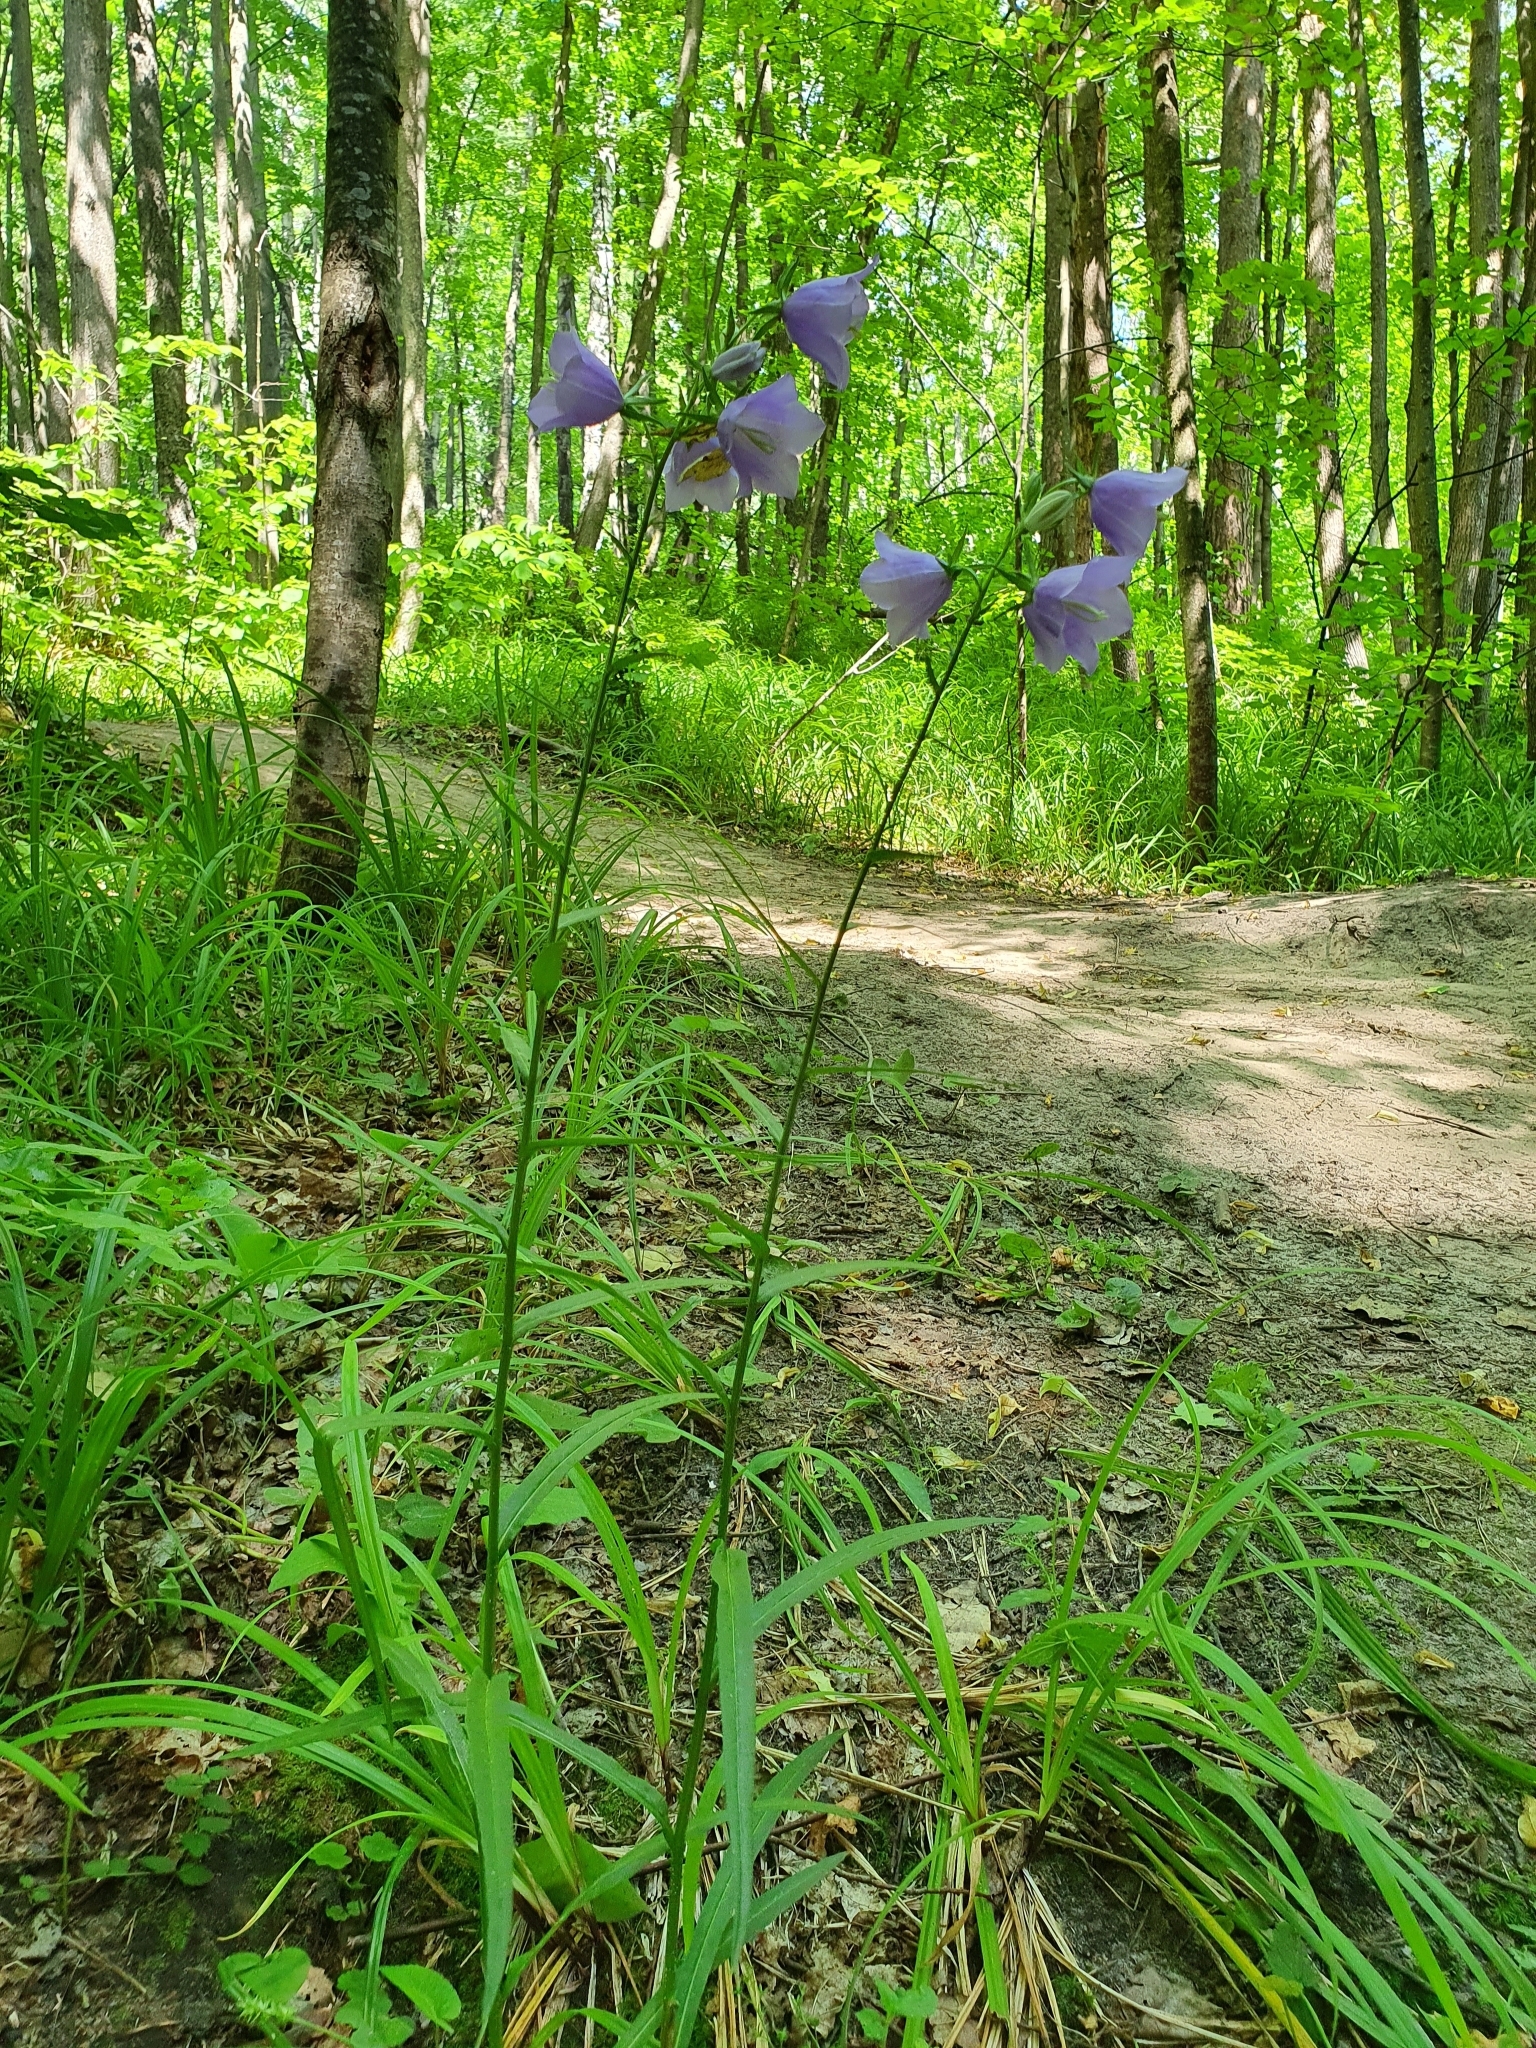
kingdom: Plantae
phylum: Tracheophyta
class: Magnoliopsida
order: Asterales
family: Campanulaceae
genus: Campanula
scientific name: Campanula persicifolia
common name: Peach-leaved bellflower
